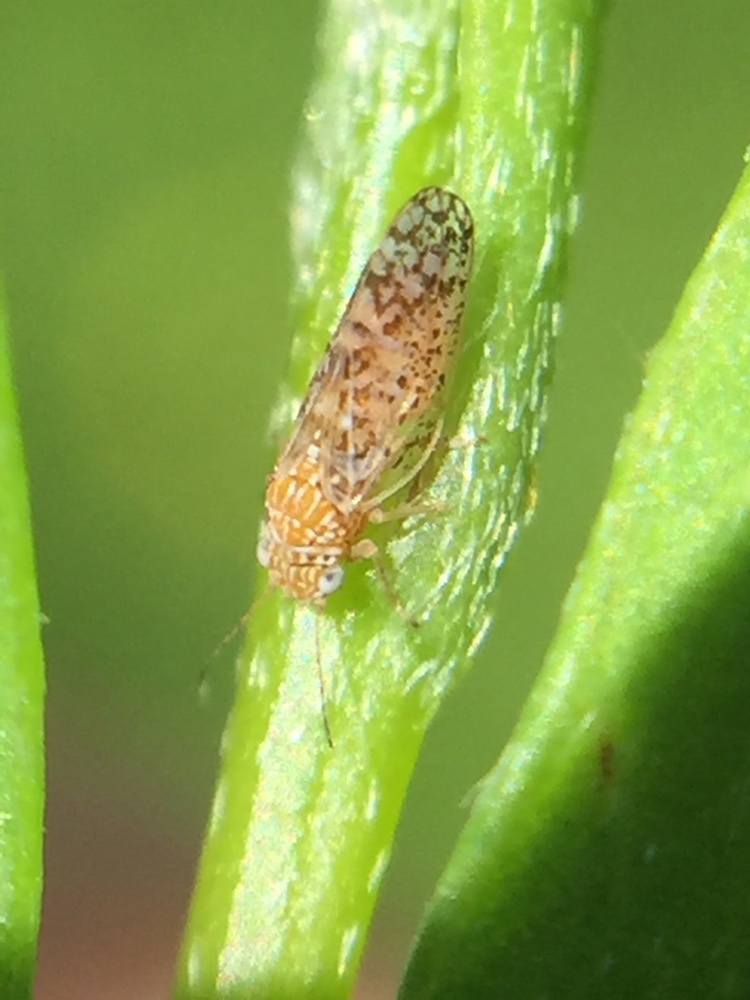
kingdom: Animalia
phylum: Arthropoda
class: Insecta
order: Hemiptera
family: Psyllidae
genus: Acizzia
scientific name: Acizzia hakeae
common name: Psyllid
